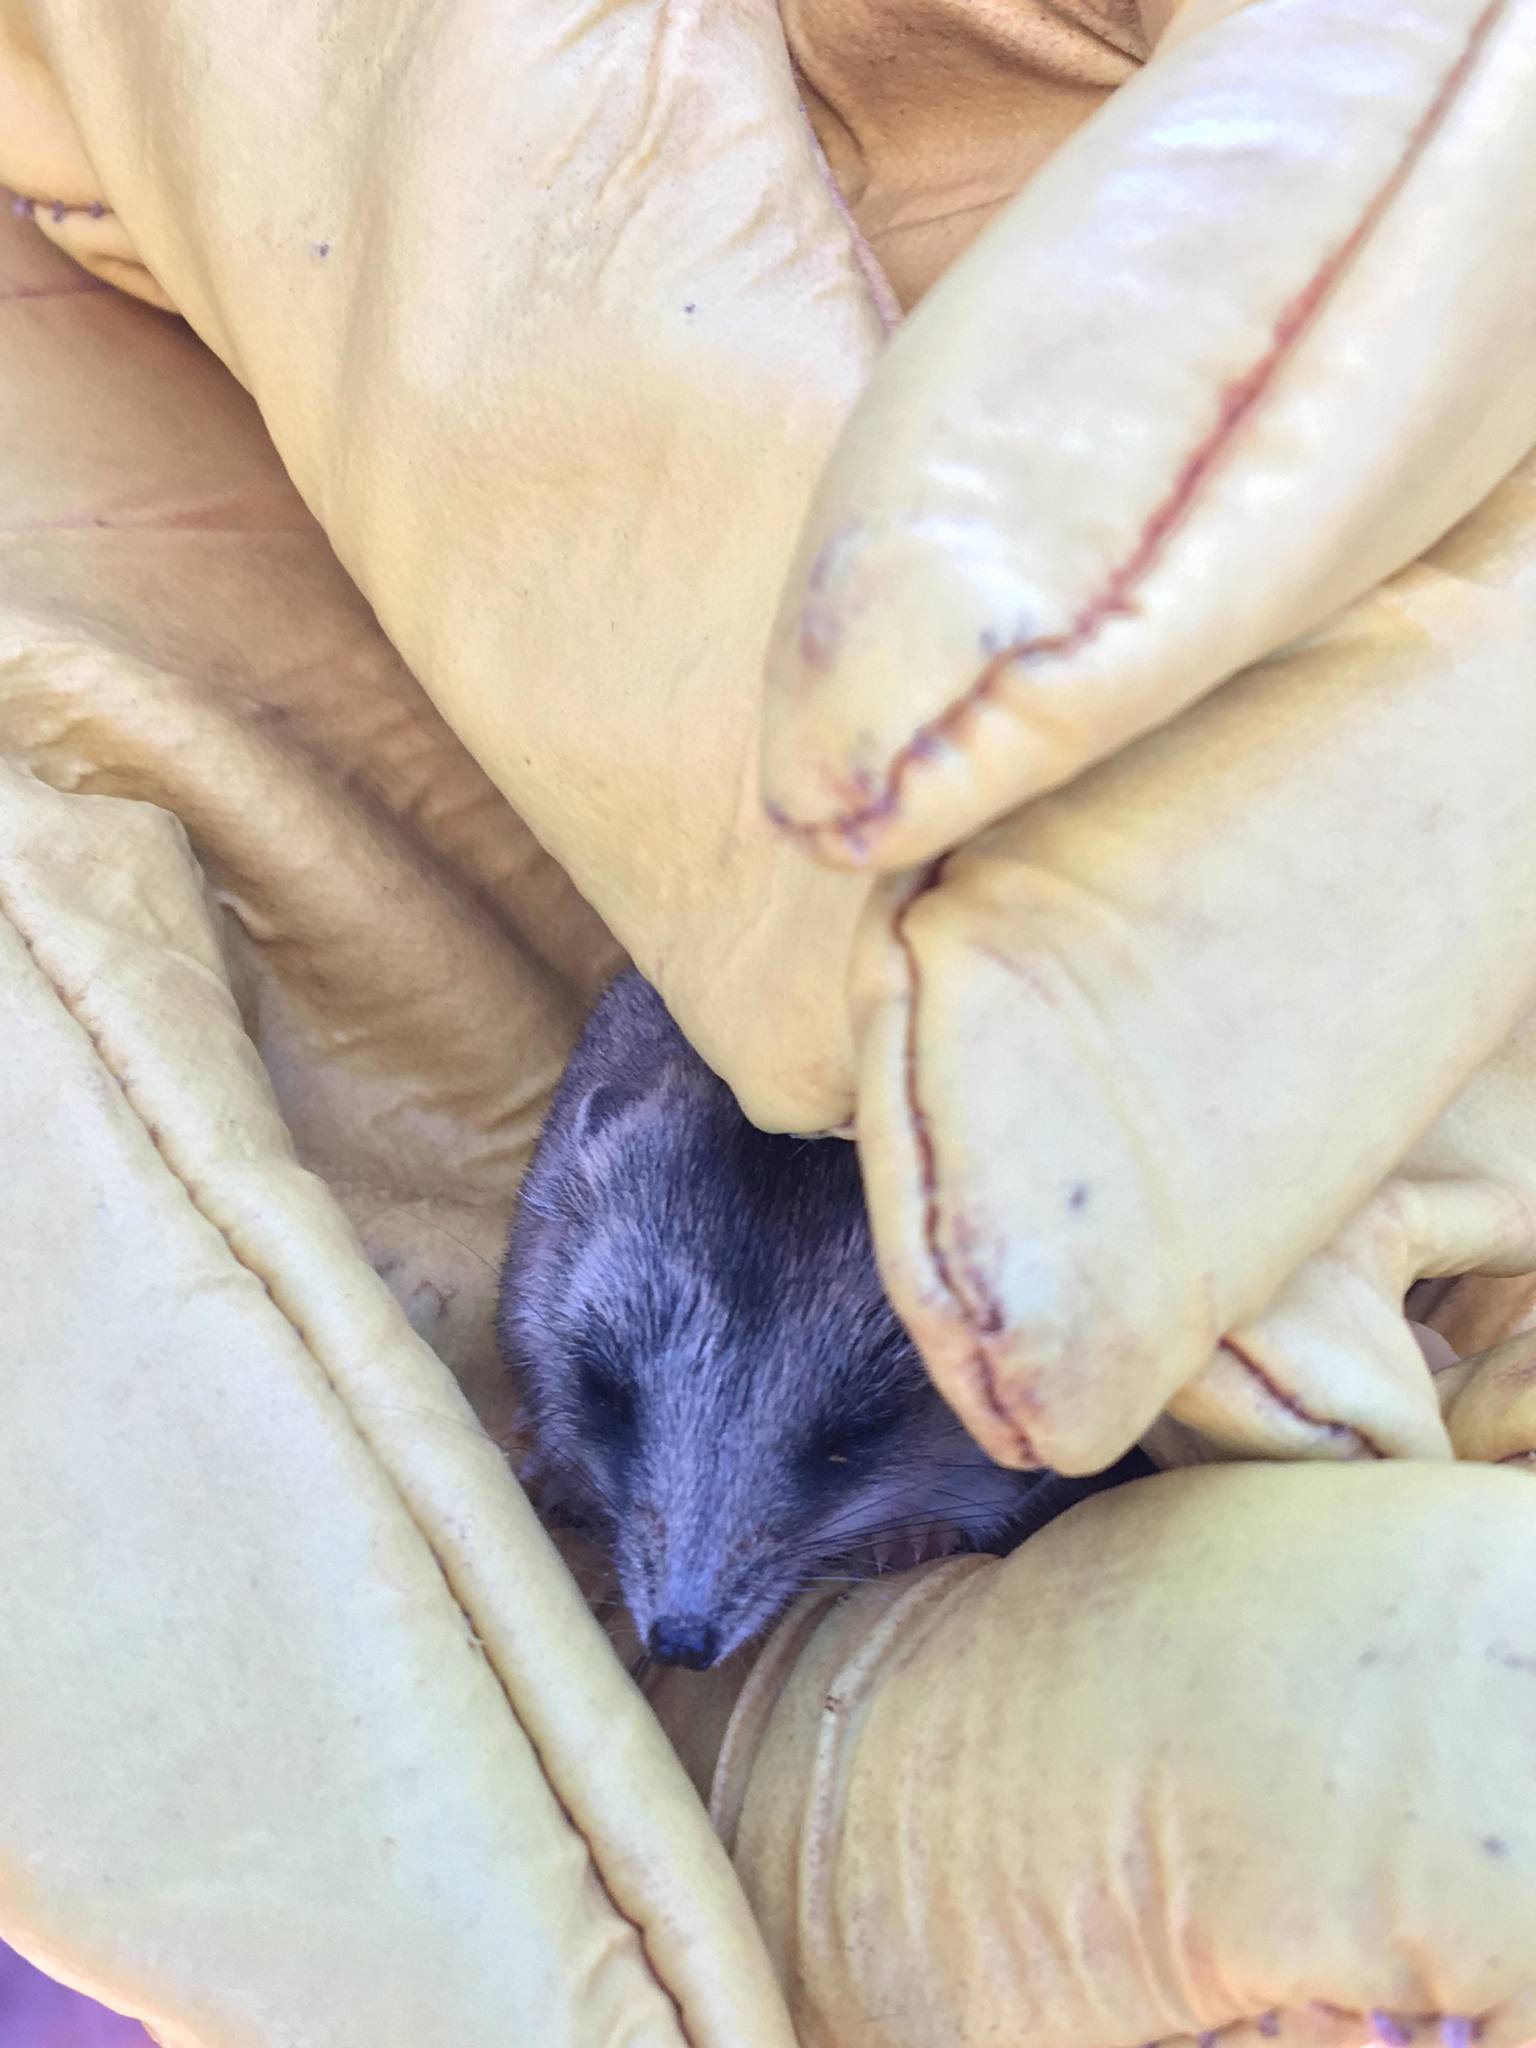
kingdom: Animalia
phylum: Chordata
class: Mammalia
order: Dasyuromorphia
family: Dasyuridae
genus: Sminthopsis
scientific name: Sminthopsis crassicaudata
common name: Fat-tailed dunnart
